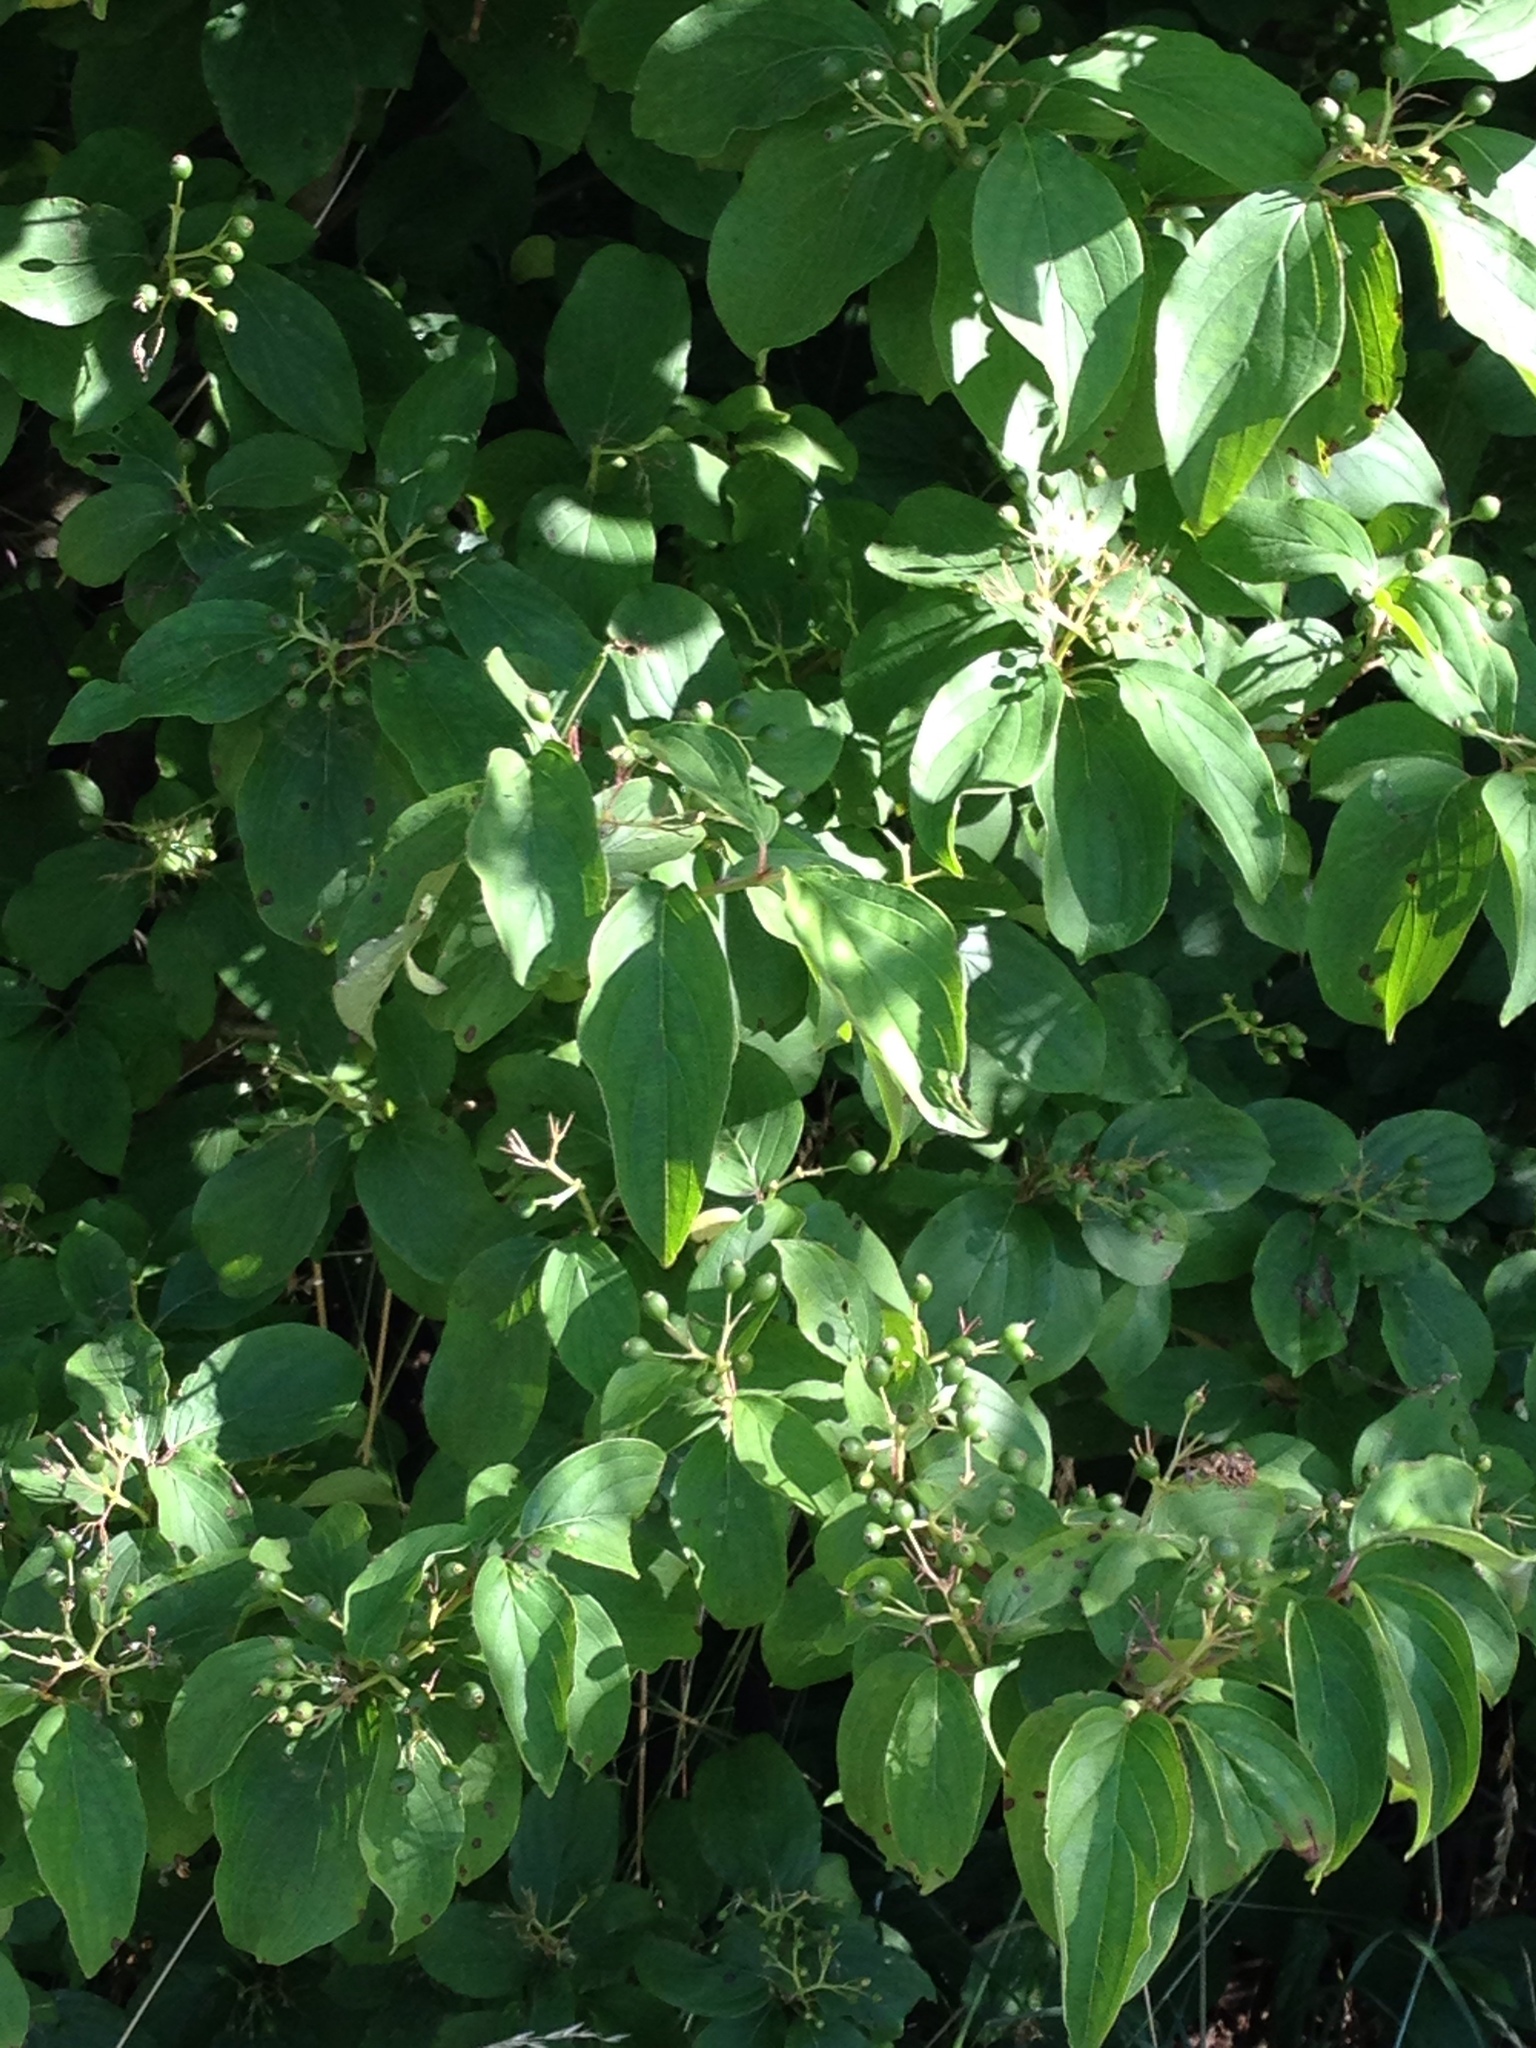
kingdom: Plantae
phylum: Tracheophyta
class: Magnoliopsida
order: Cornales
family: Cornaceae
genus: Cornus
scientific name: Cornus sanguinea
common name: Dogwood
